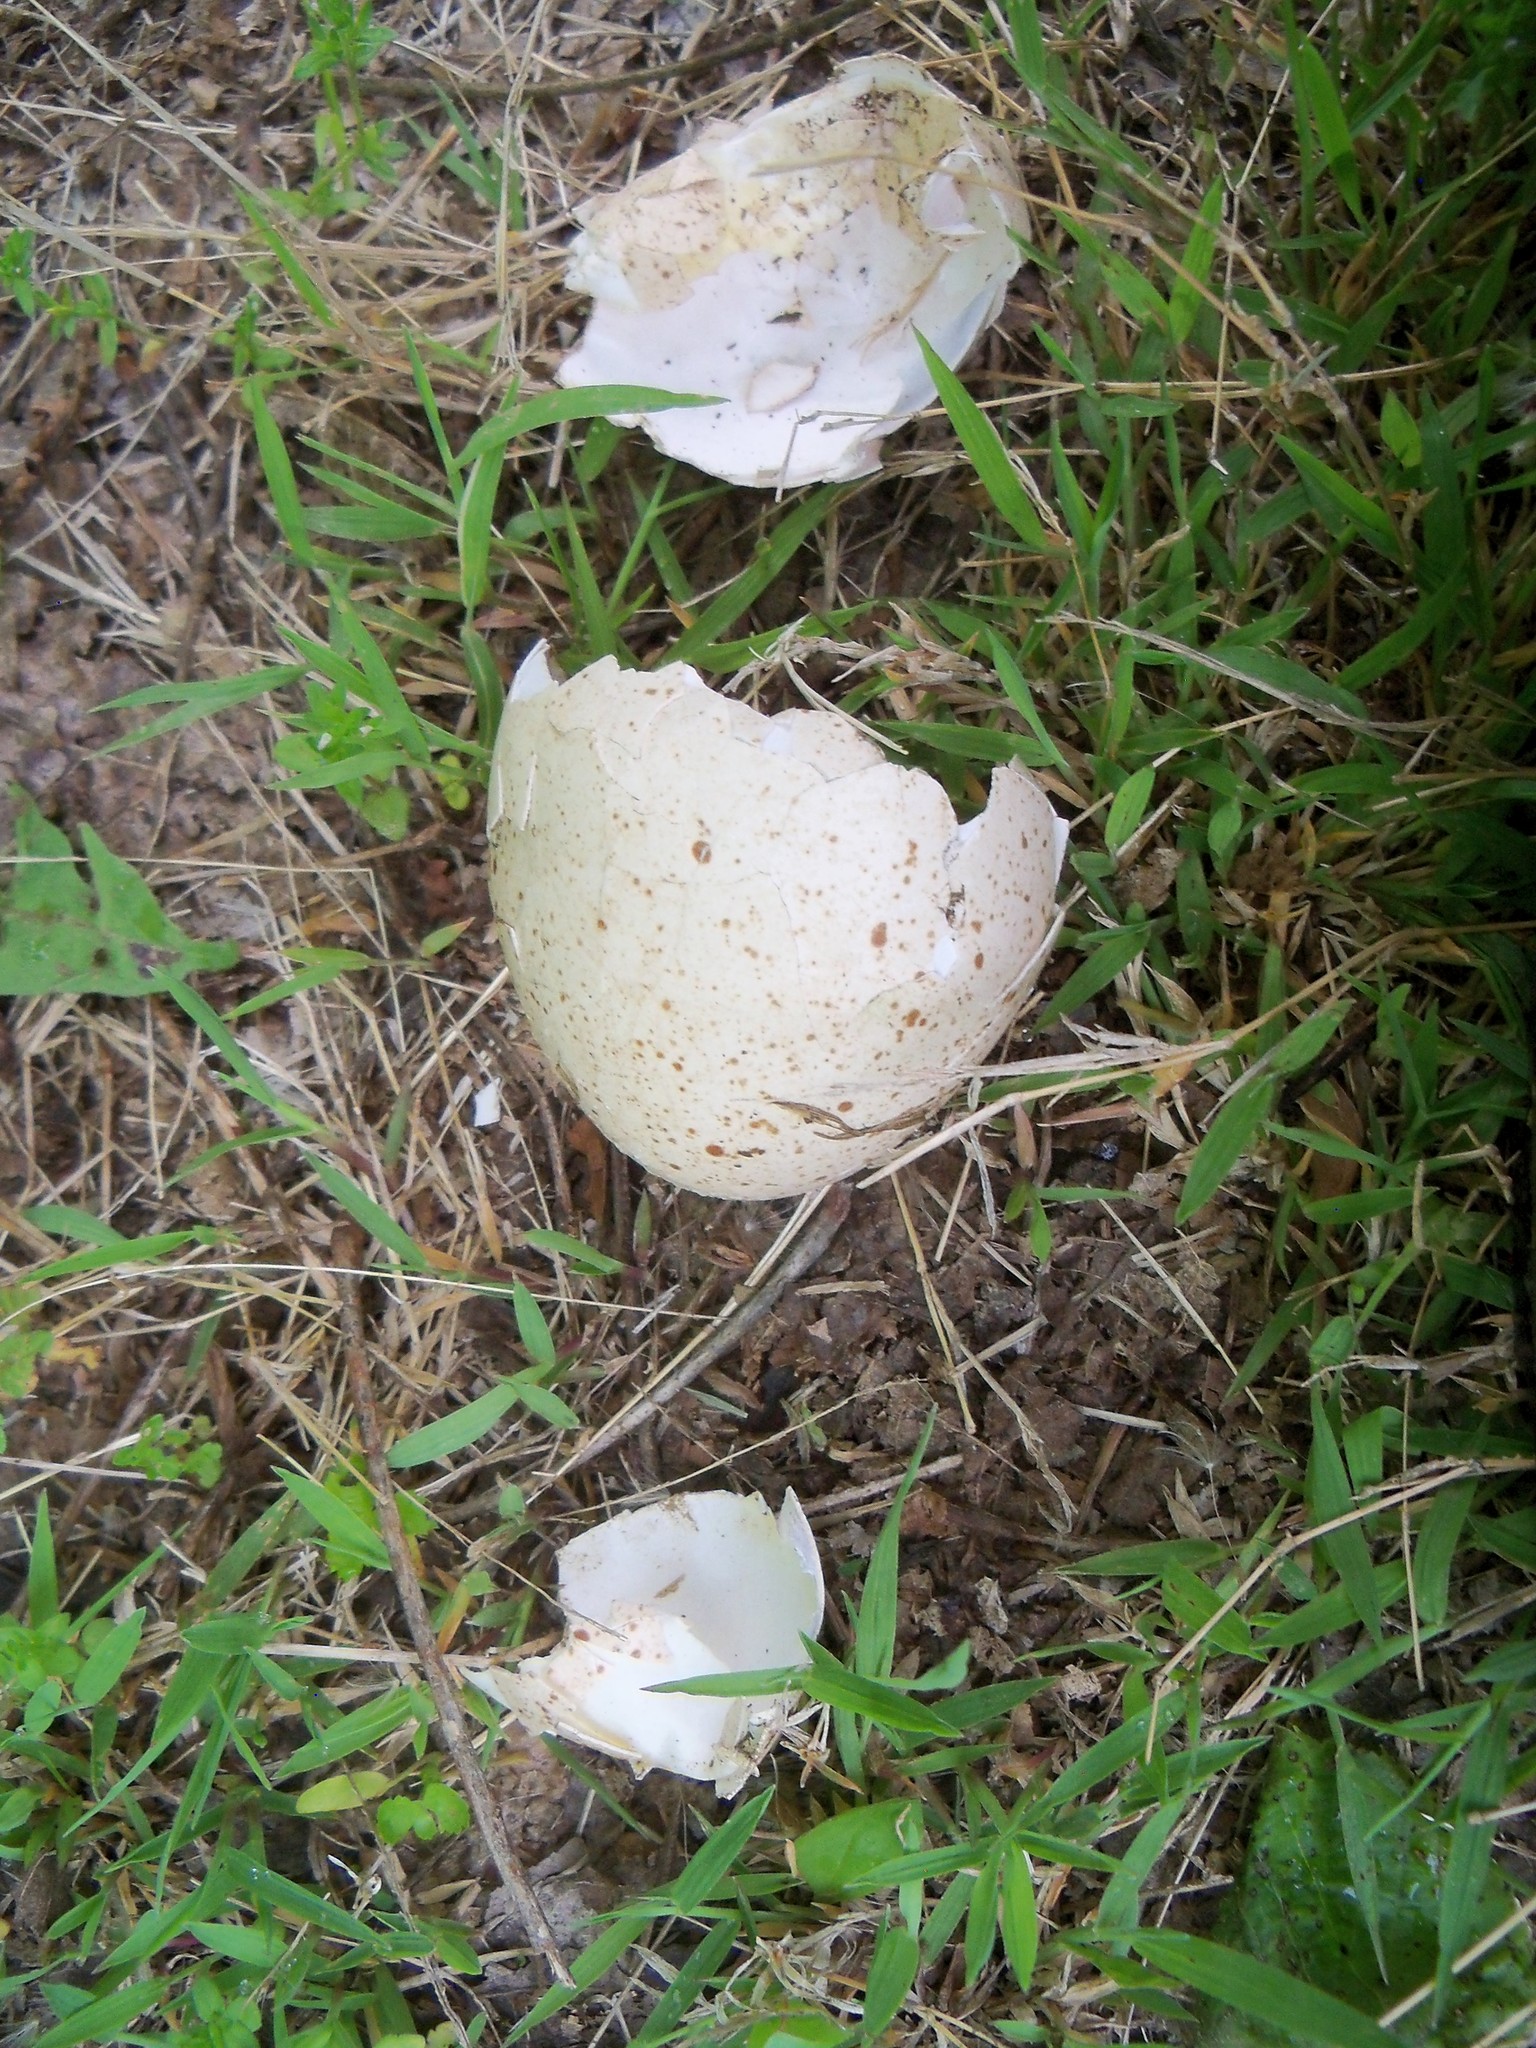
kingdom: Animalia
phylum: Chordata
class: Aves
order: Galliformes
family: Phasianidae
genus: Meleagris
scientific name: Meleagris gallopavo
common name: Wild turkey
